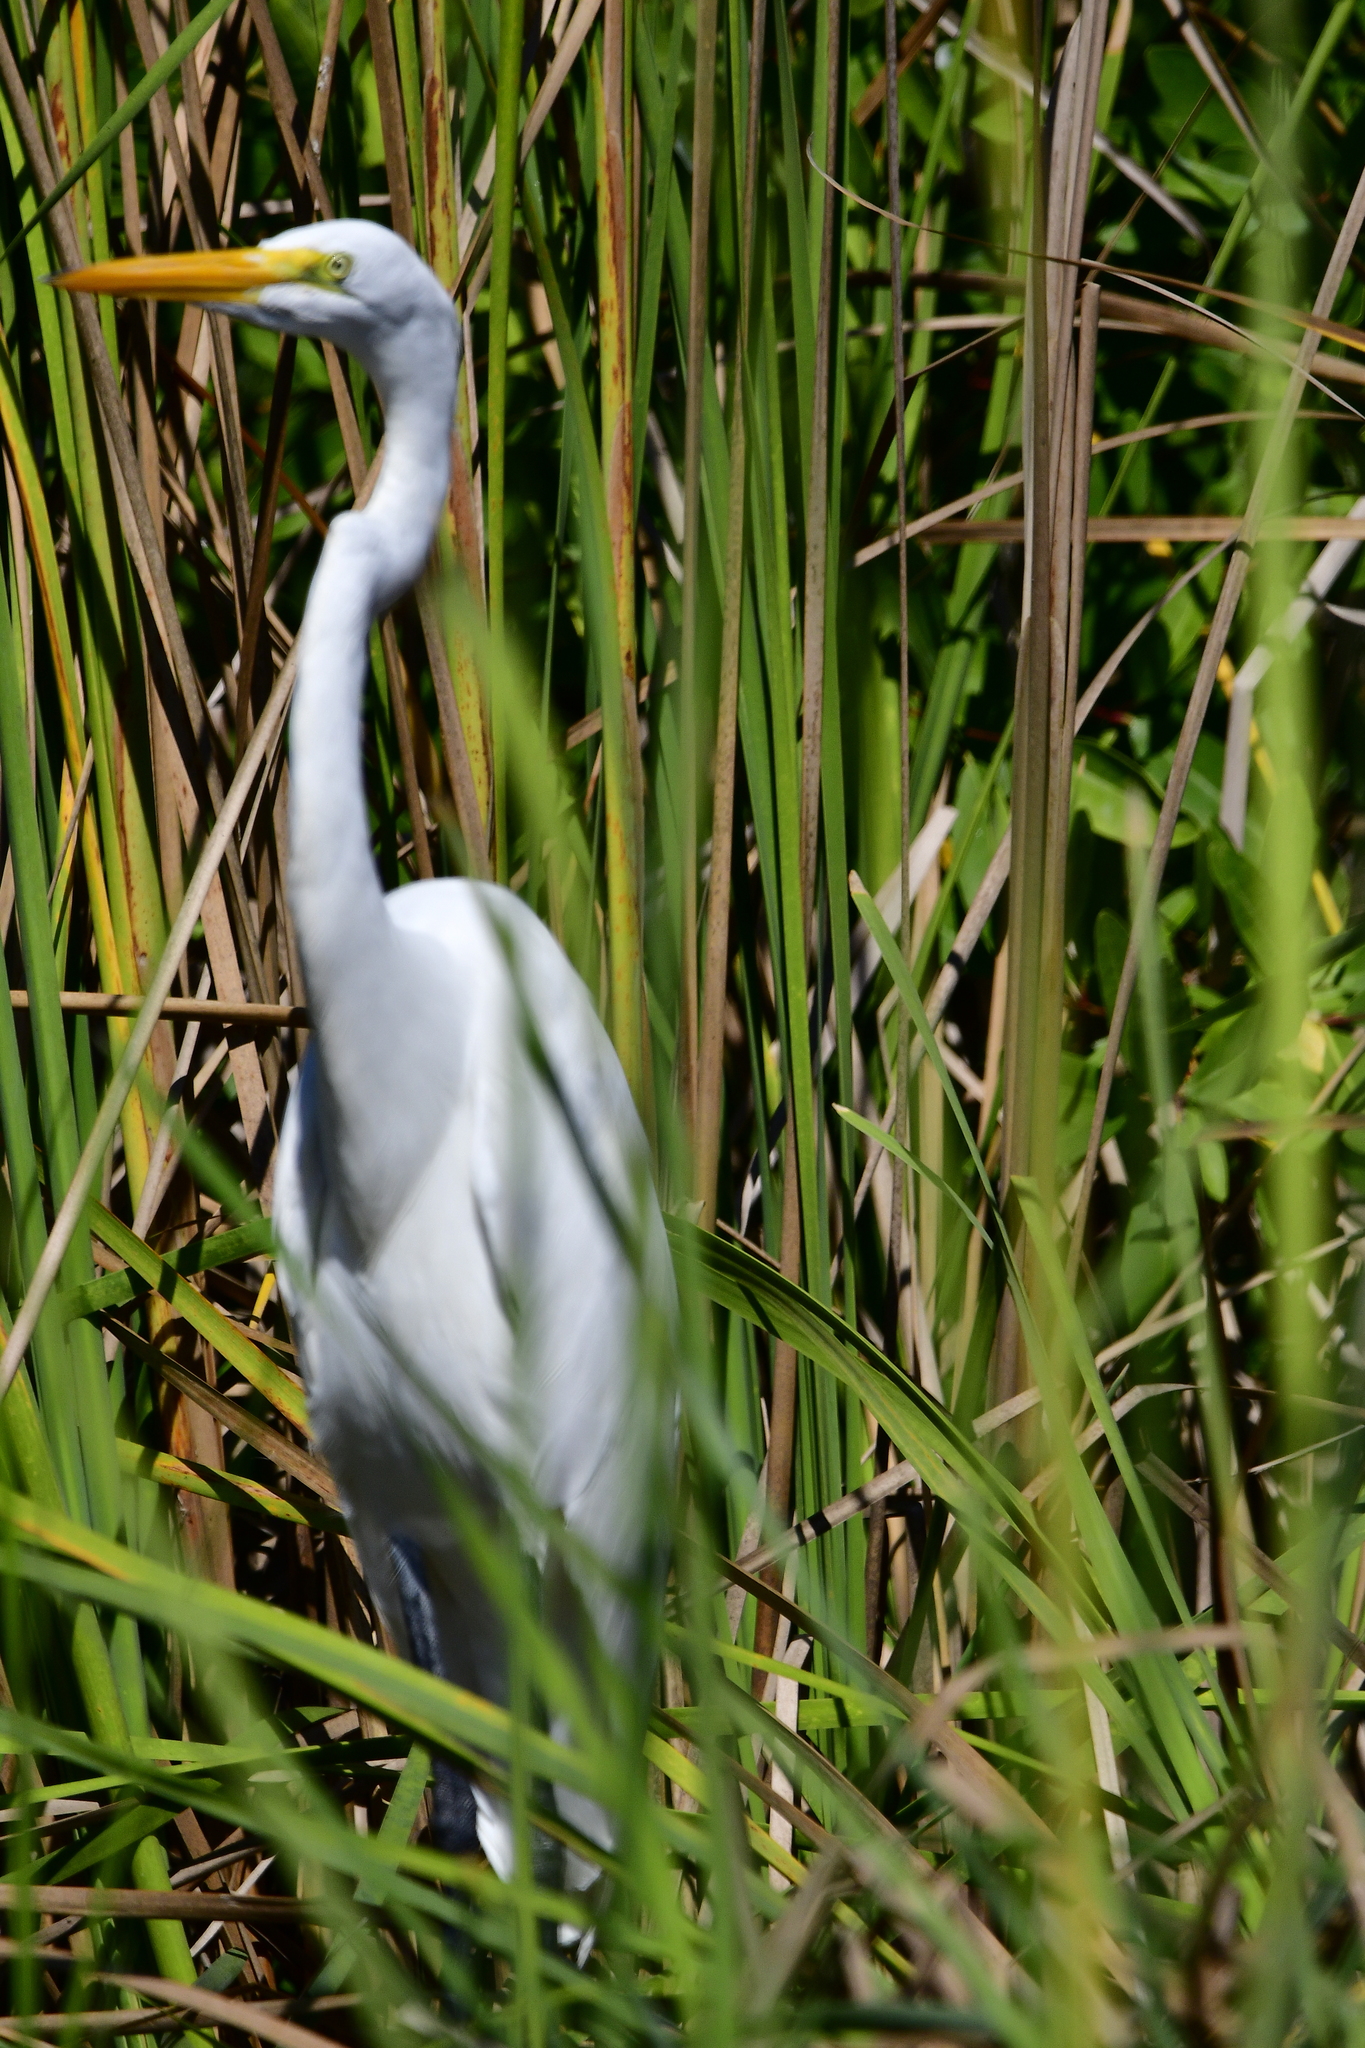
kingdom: Animalia
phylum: Chordata
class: Aves
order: Pelecaniformes
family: Ardeidae
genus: Ardea
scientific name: Ardea alba
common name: Great egret
